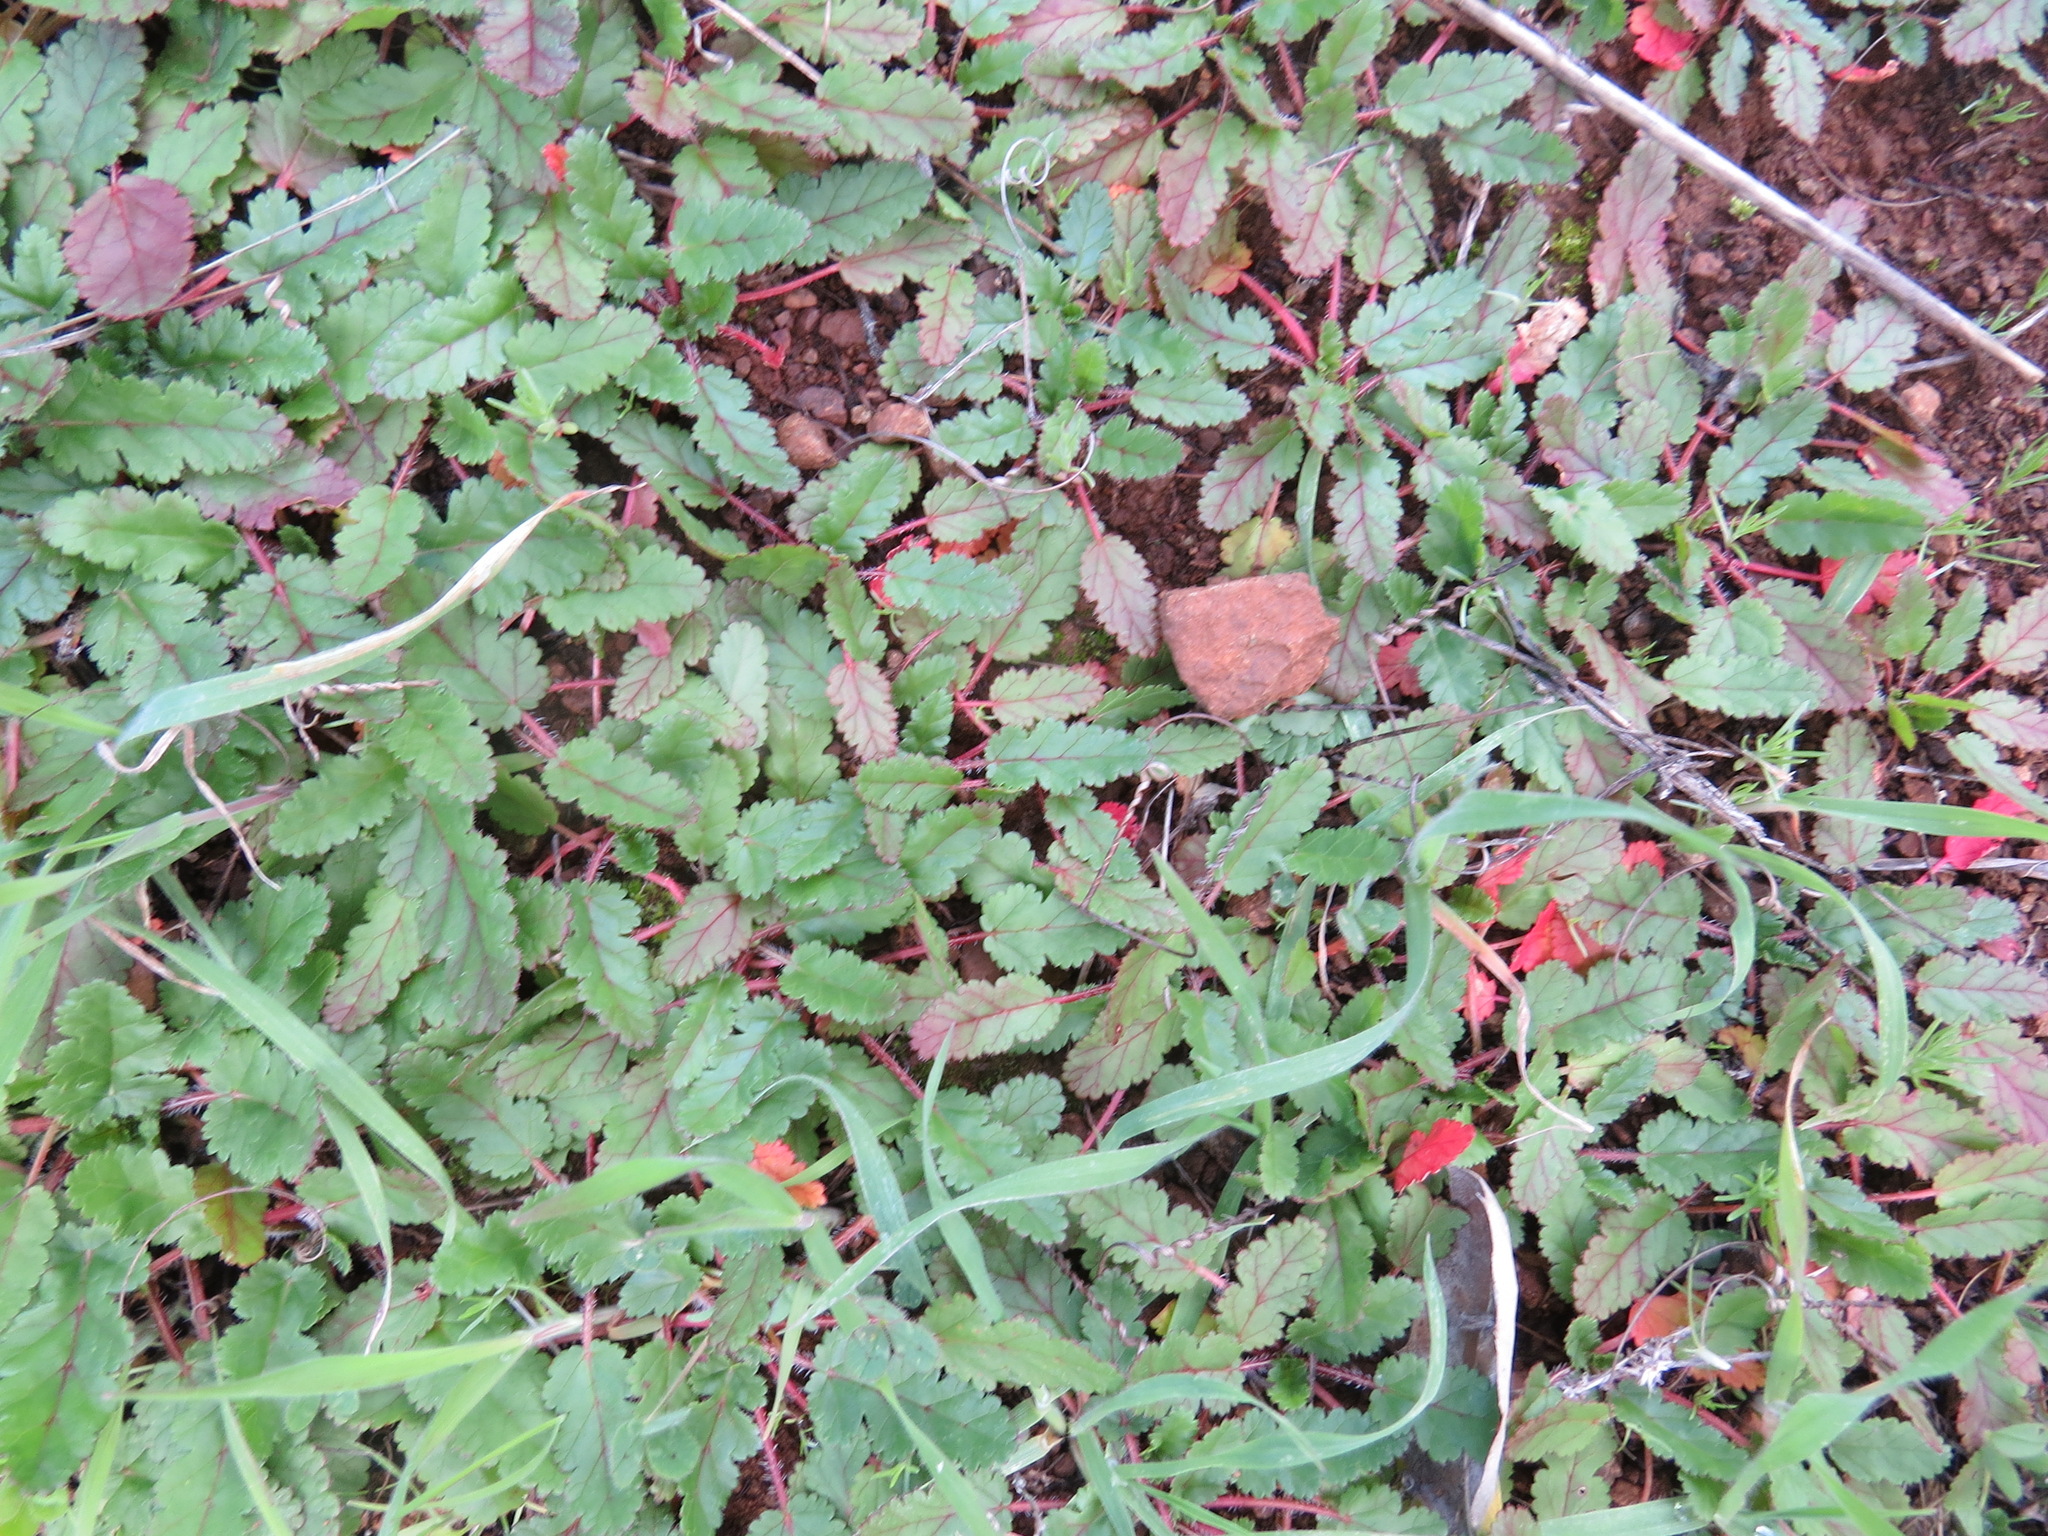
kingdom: Plantae
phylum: Tracheophyta
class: Magnoliopsida
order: Geraniales
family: Geraniaceae
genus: Erodium
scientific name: Erodium
